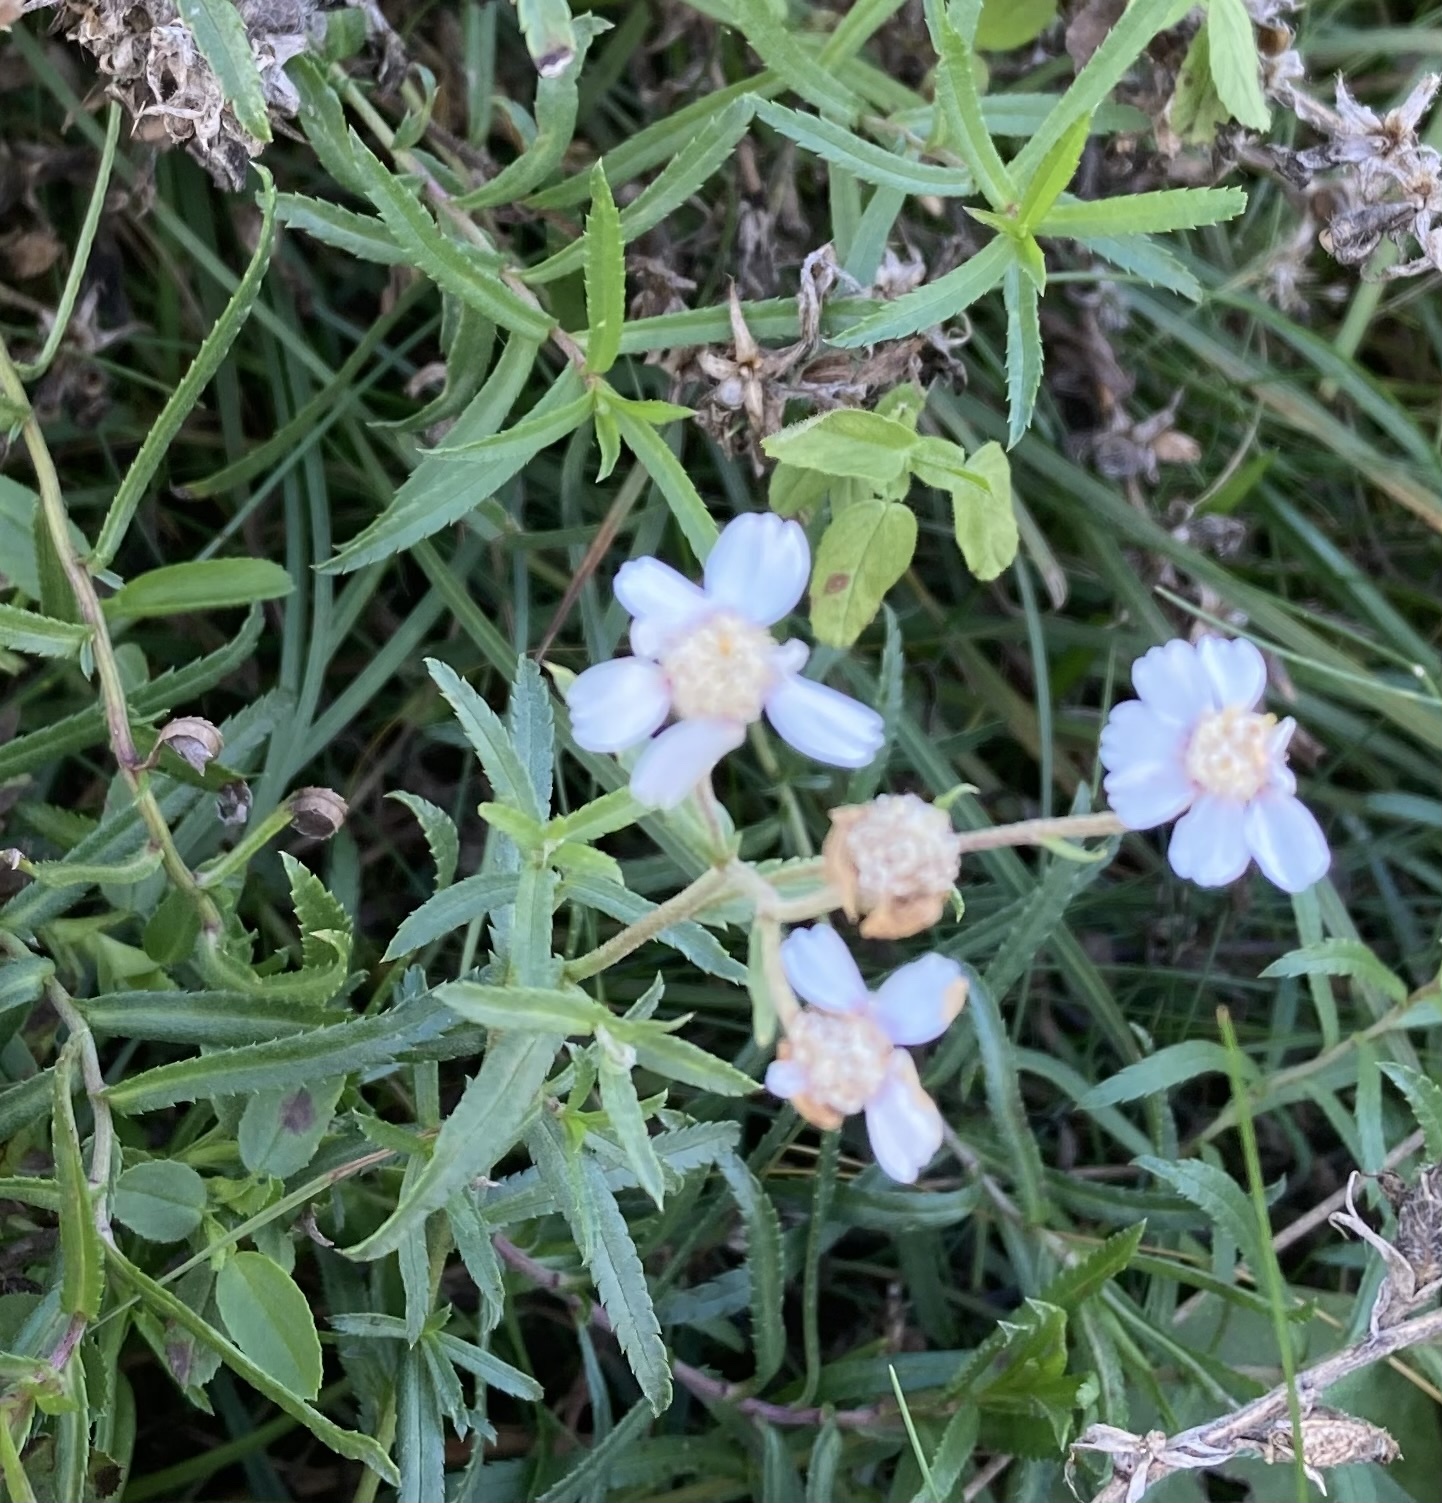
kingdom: Plantae
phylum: Tracheophyta
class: Magnoliopsida
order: Asterales
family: Asteraceae
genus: Achillea
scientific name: Achillea ptarmica
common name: Sneezeweed
